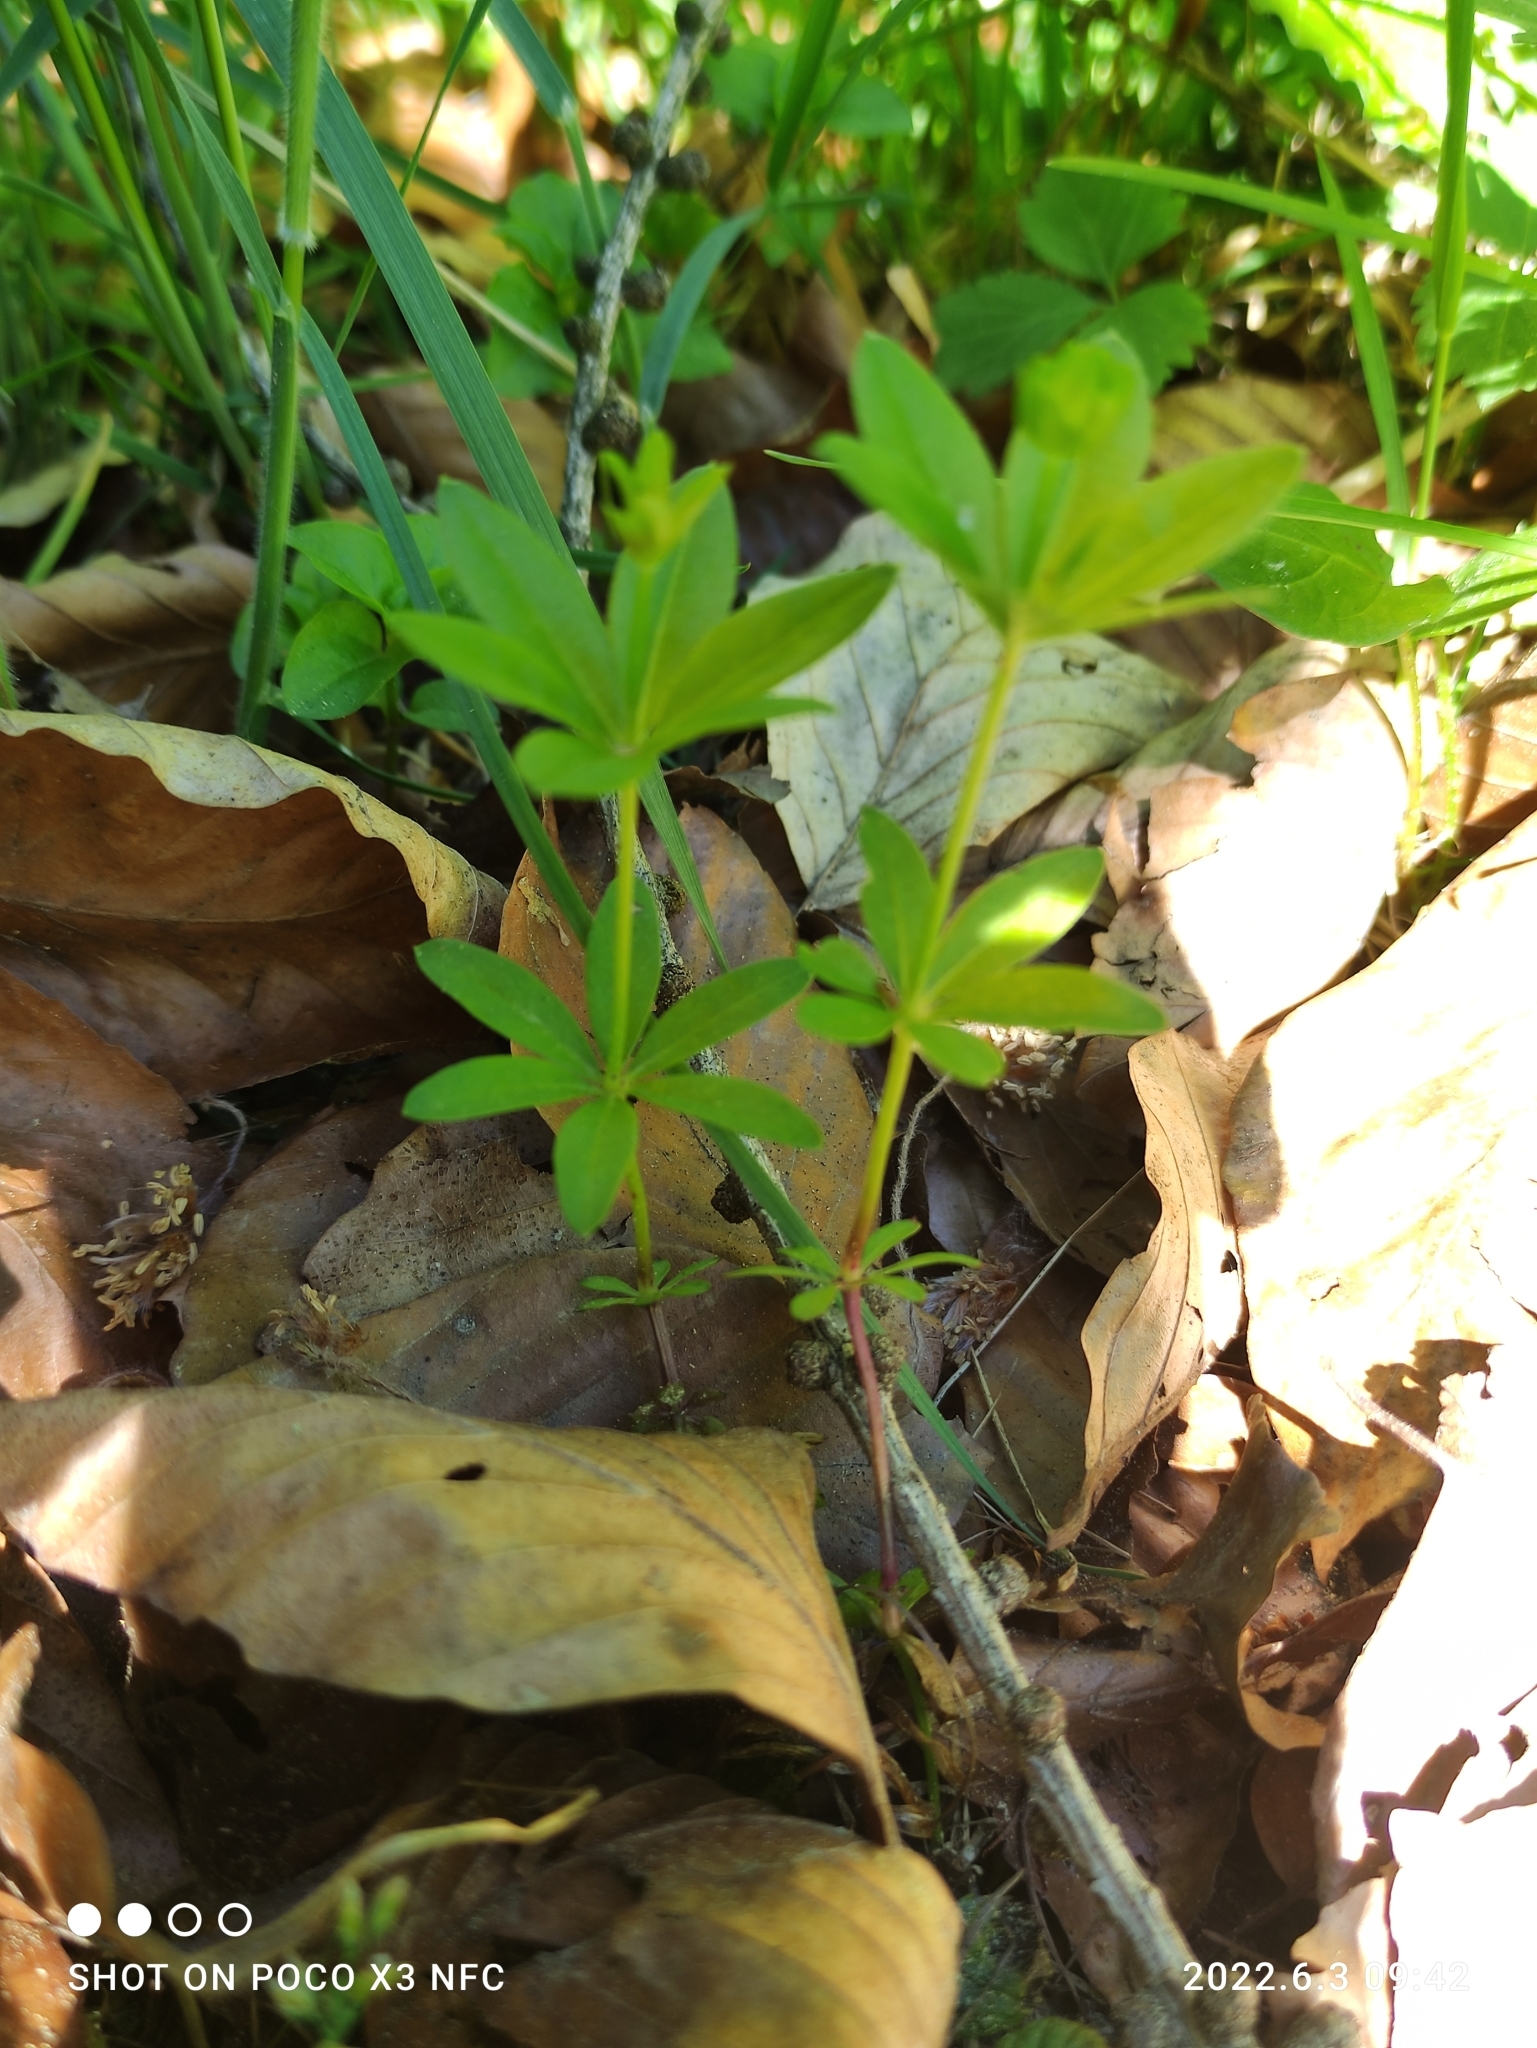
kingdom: Plantae
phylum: Tracheophyta
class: Magnoliopsida
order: Gentianales
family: Rubiaceae
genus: Galium
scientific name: Galium odoratum
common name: Sweet woodruff
